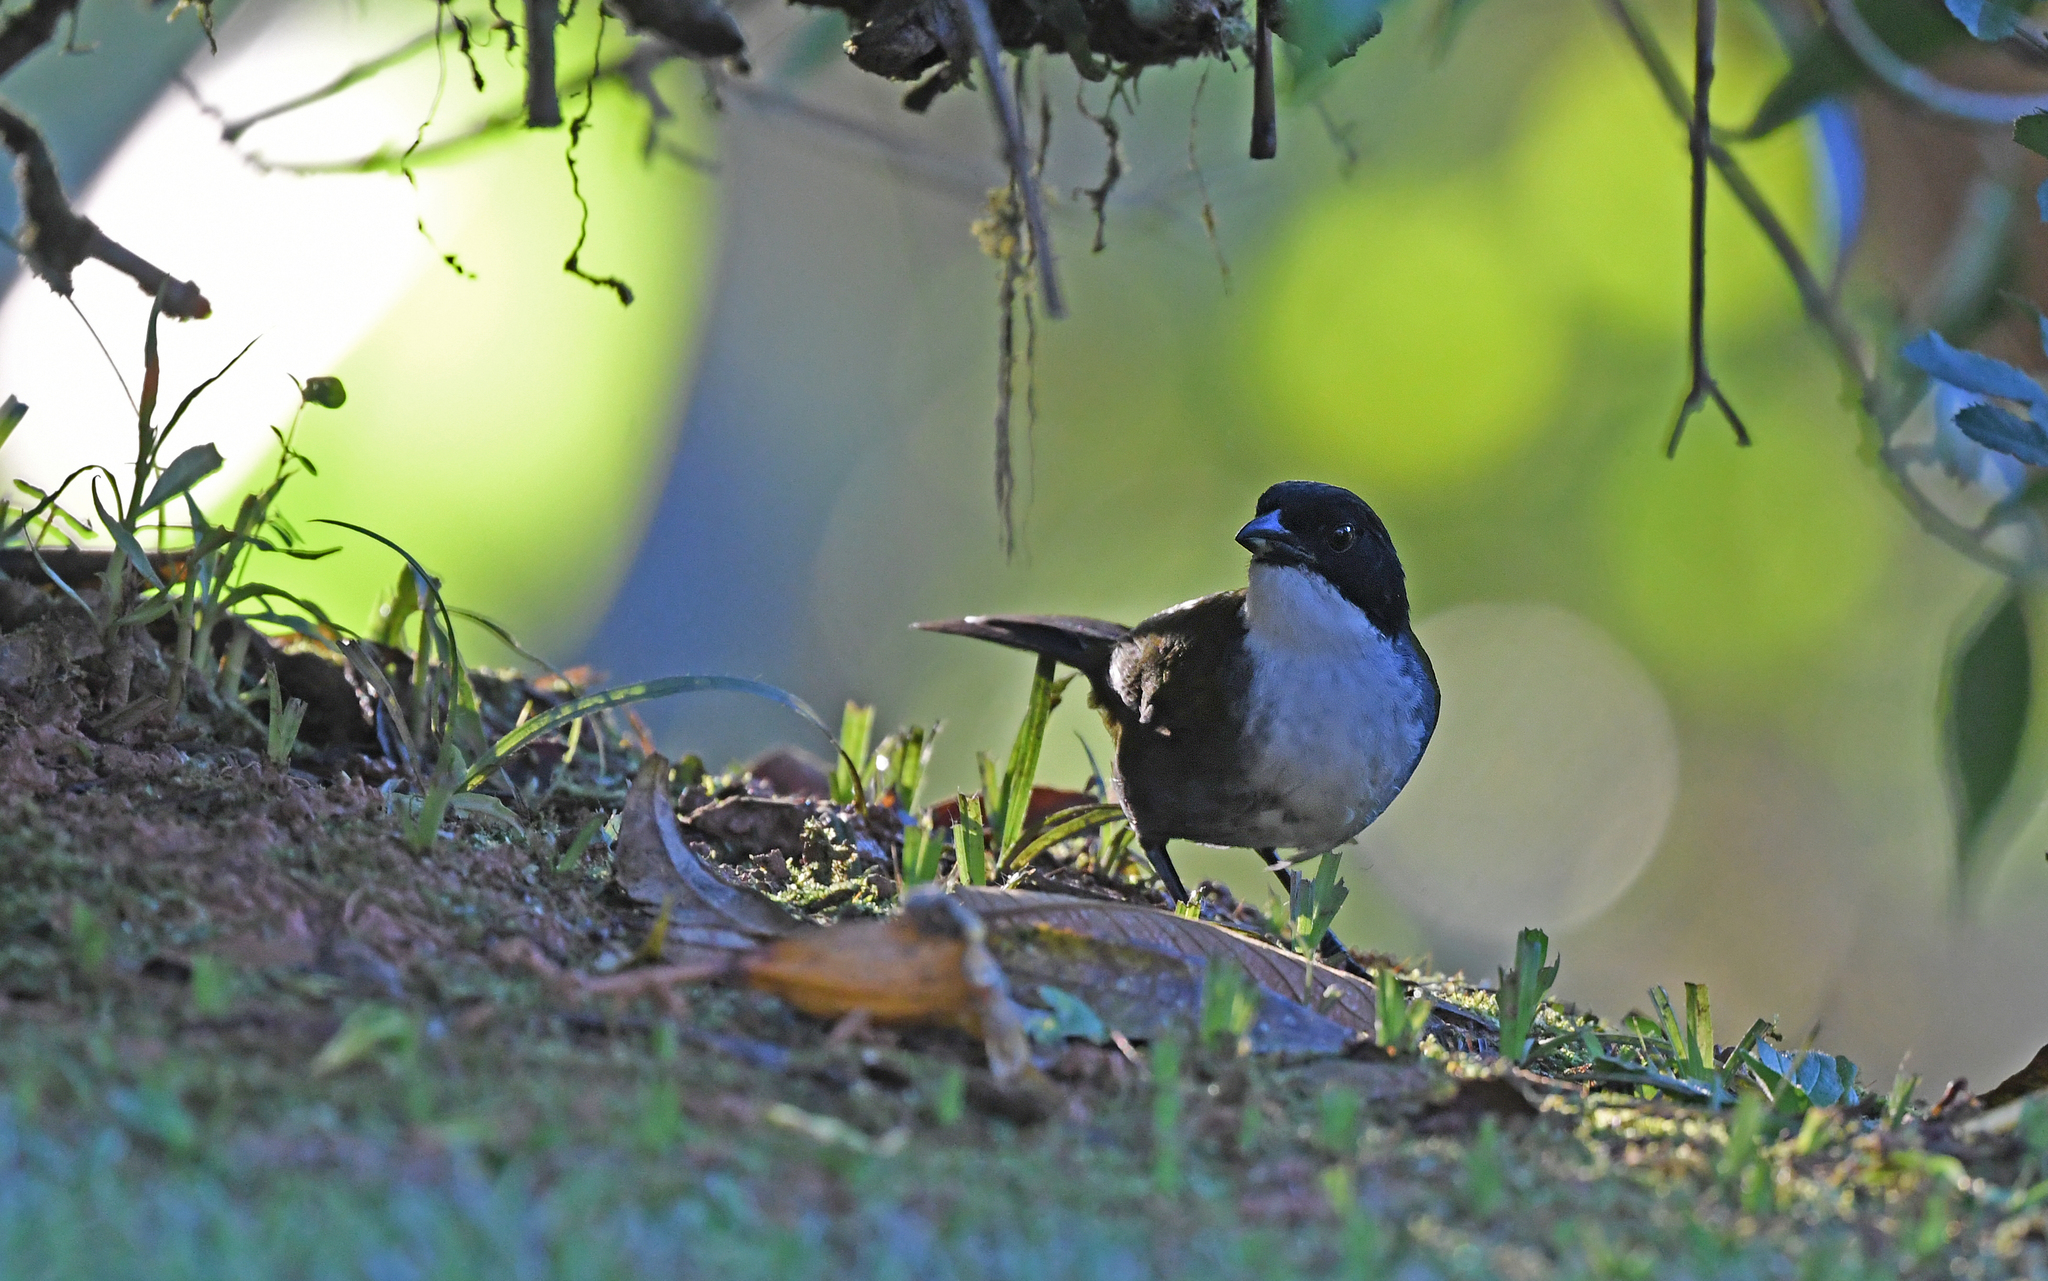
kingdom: Animalia
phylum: Chordata
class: Aves
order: Passeriformes
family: Passerellidae
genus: Arremon
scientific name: Arremon atricapillus
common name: Black-headed brushfinch
